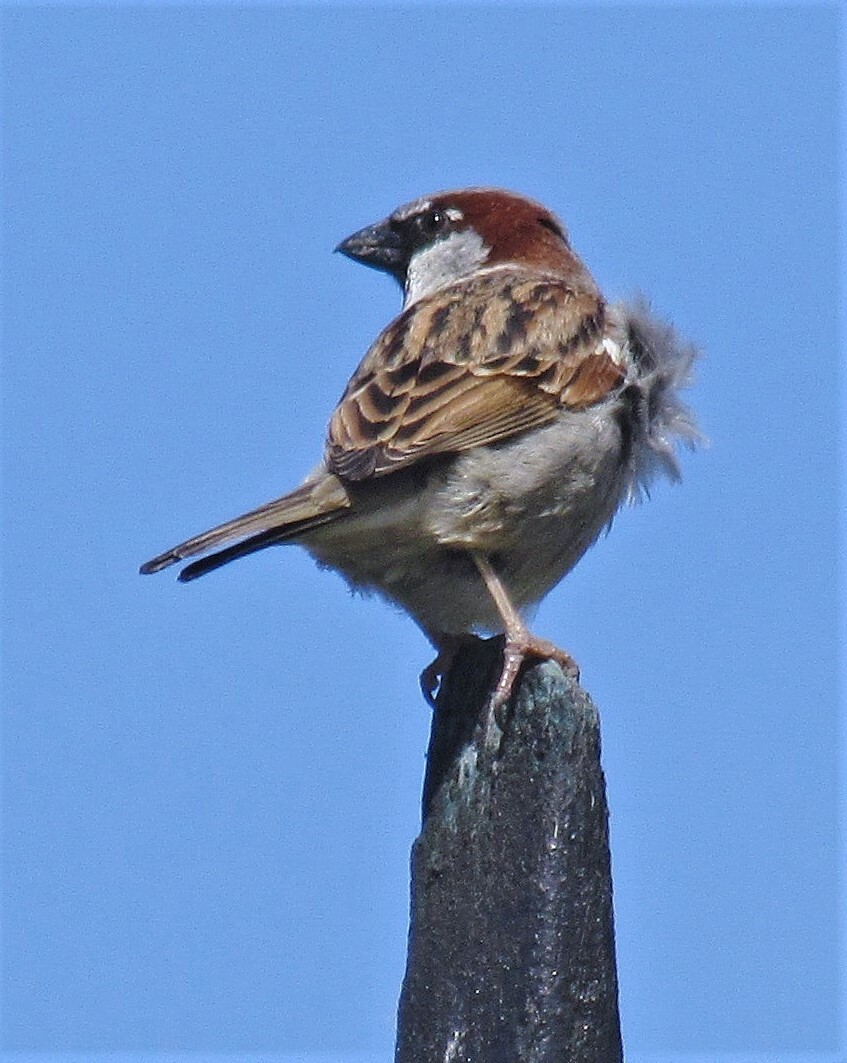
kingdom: Animalia
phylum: Chordata
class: Aves
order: Passeriformes
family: Passeridae
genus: Passer
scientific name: Passer domesticus
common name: House sparrow
